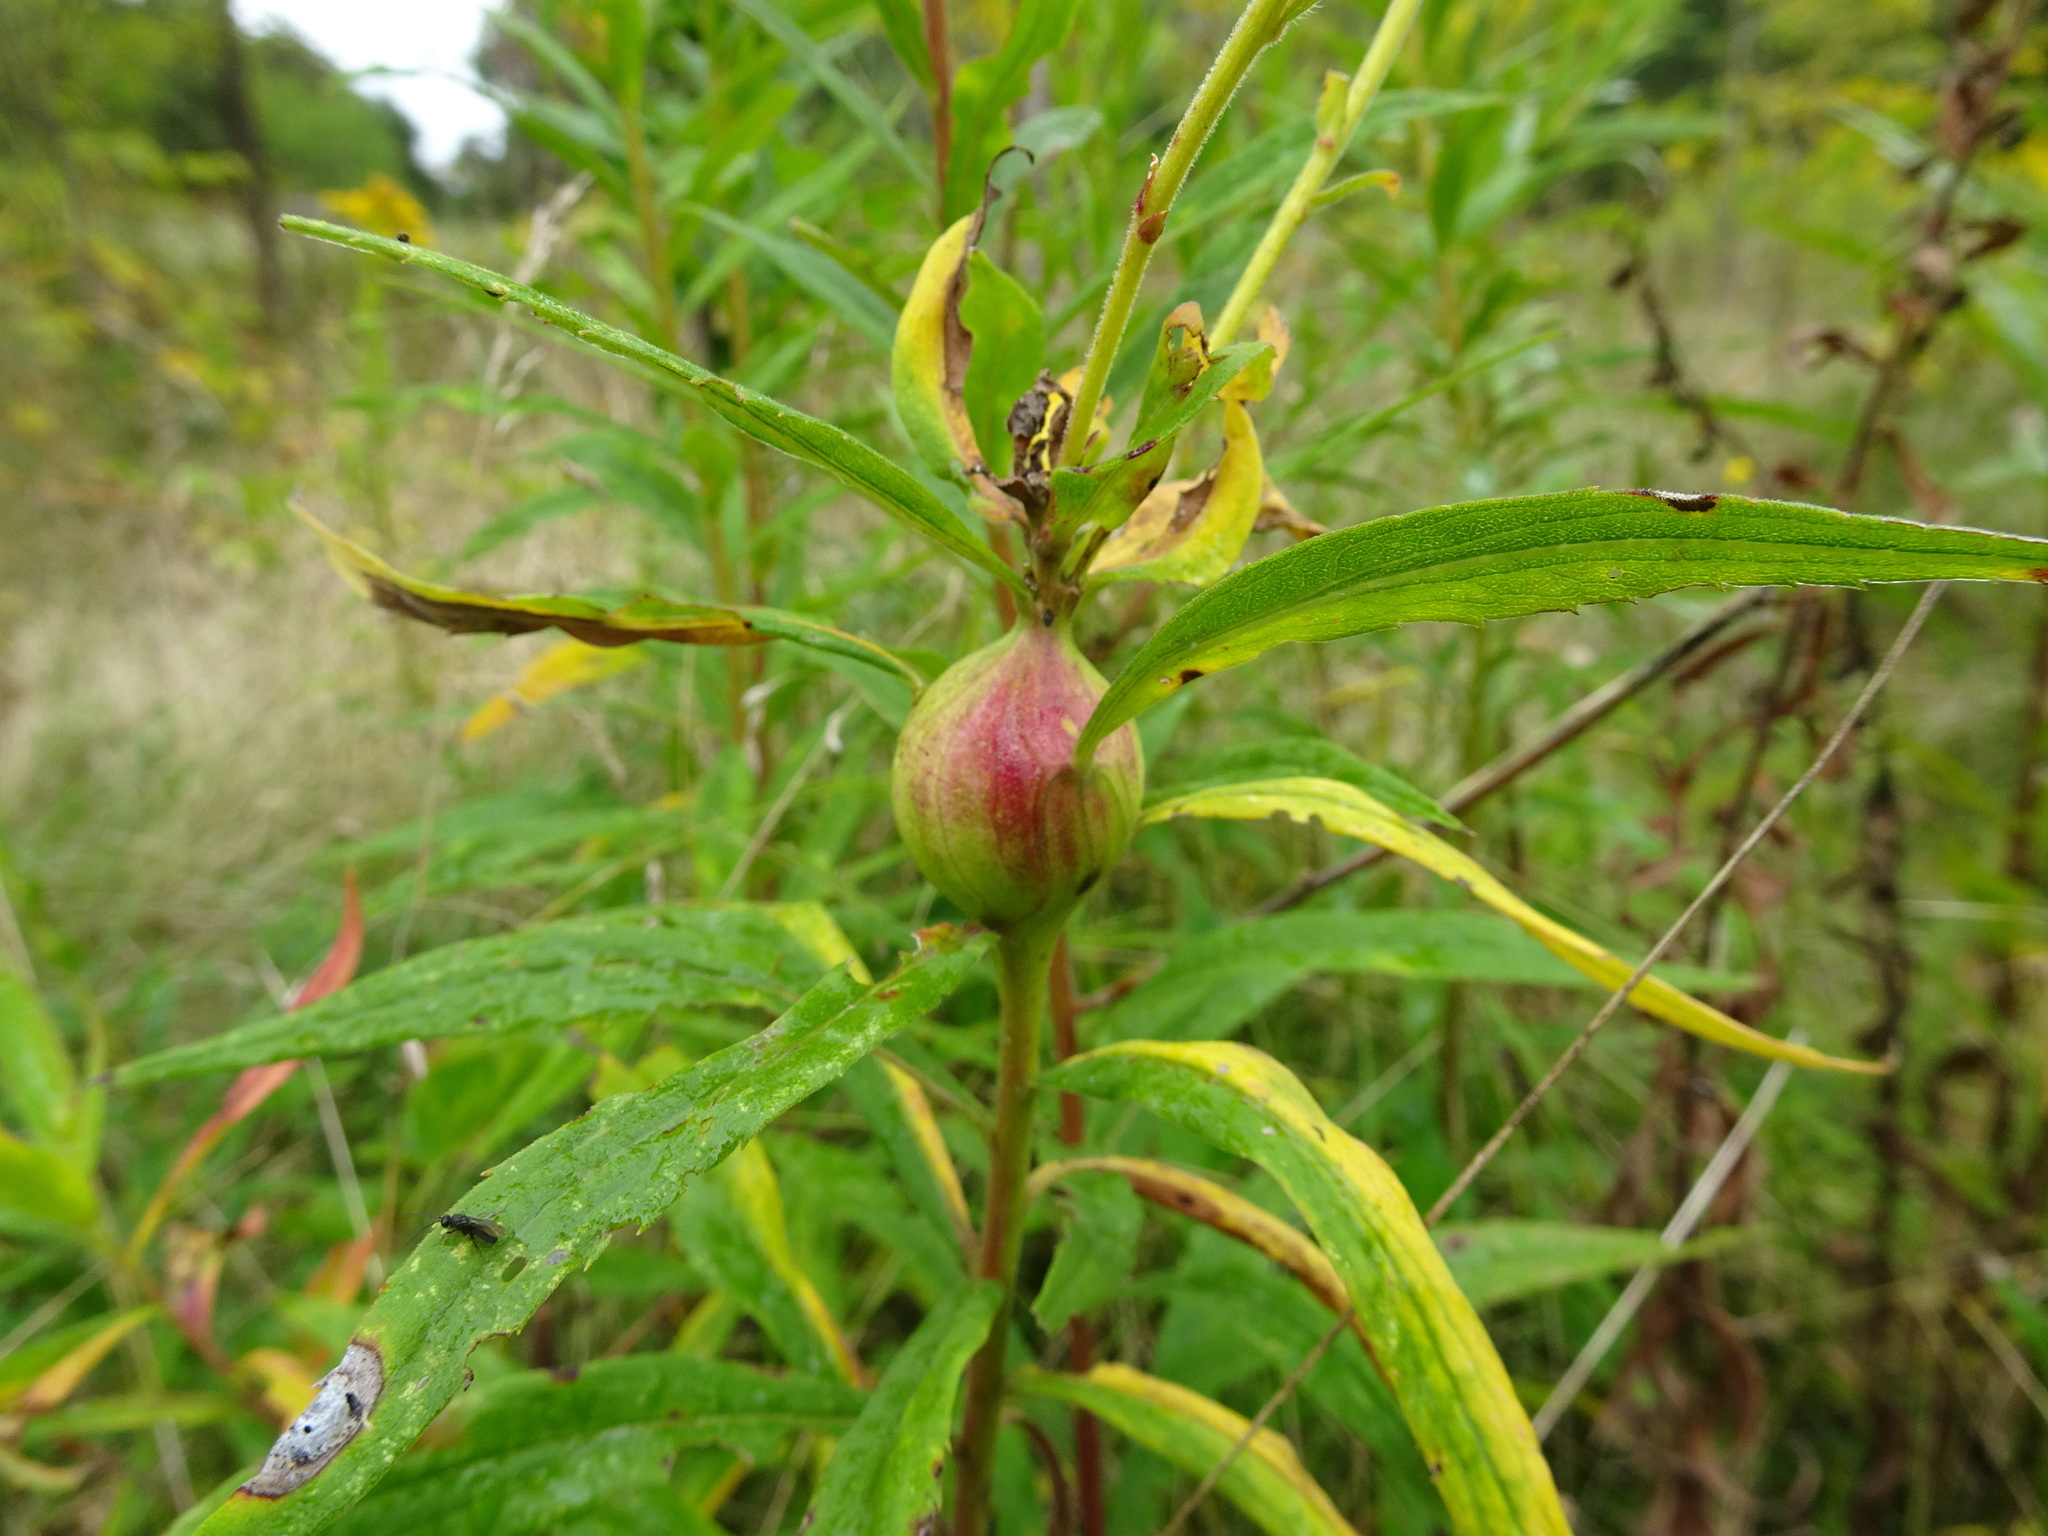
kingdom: Animalia
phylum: Arthropoda
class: Insecta
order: Diptera
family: Tephritidae
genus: Eurosta
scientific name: Eurosta solidaginis
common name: Goldenrod gall fly
